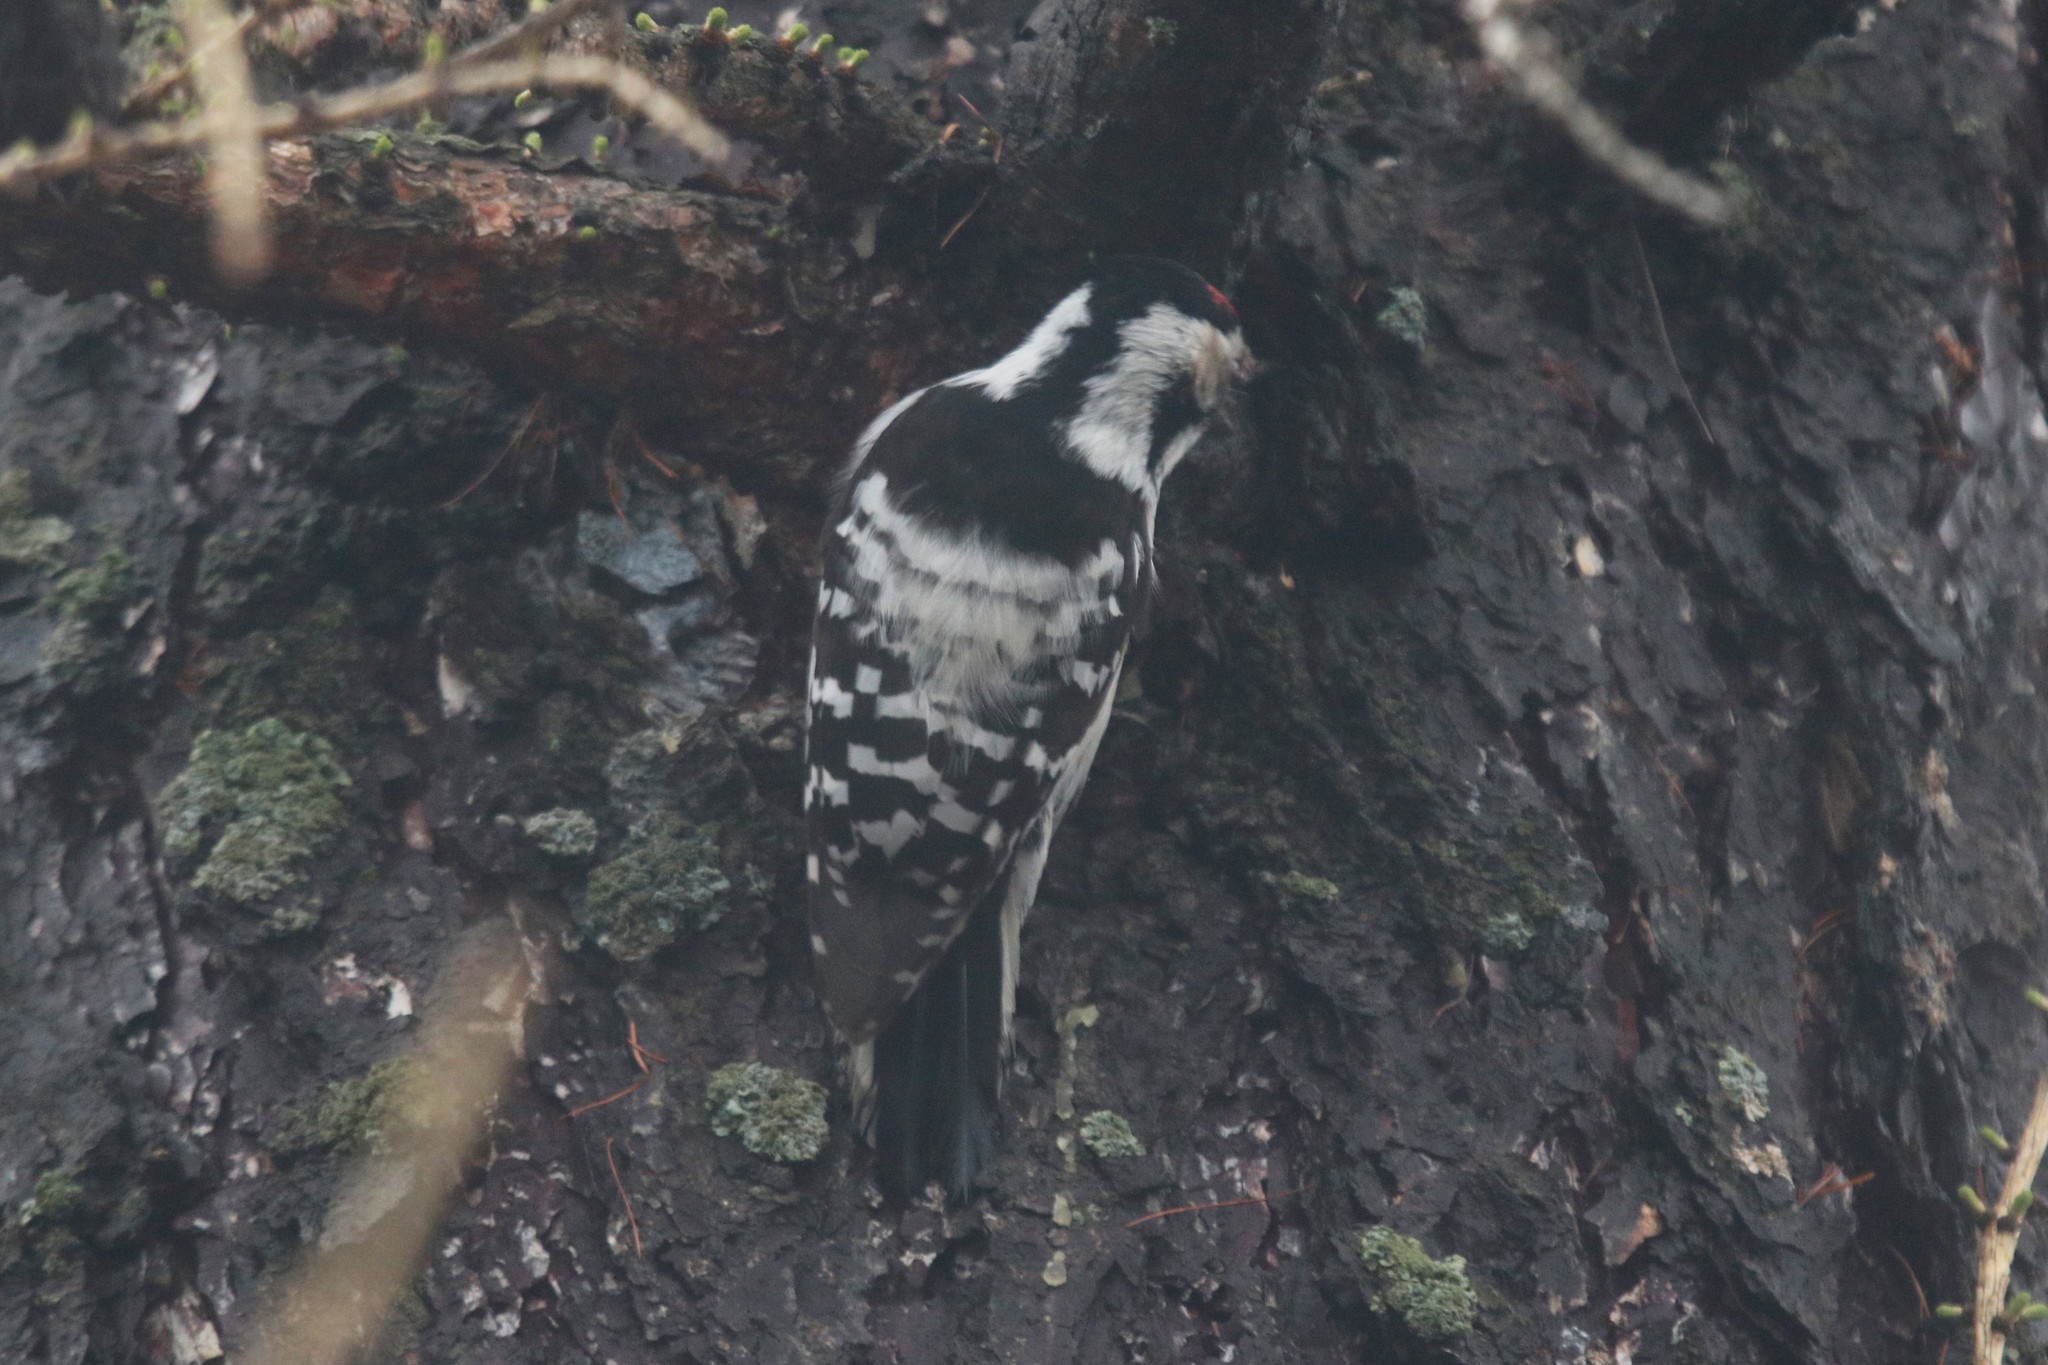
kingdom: Animalia
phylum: Chordata
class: Aves
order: Piciformes
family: Picidae
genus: Dryobates
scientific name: Dryobates minor
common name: Lesser spotted woodpecker
